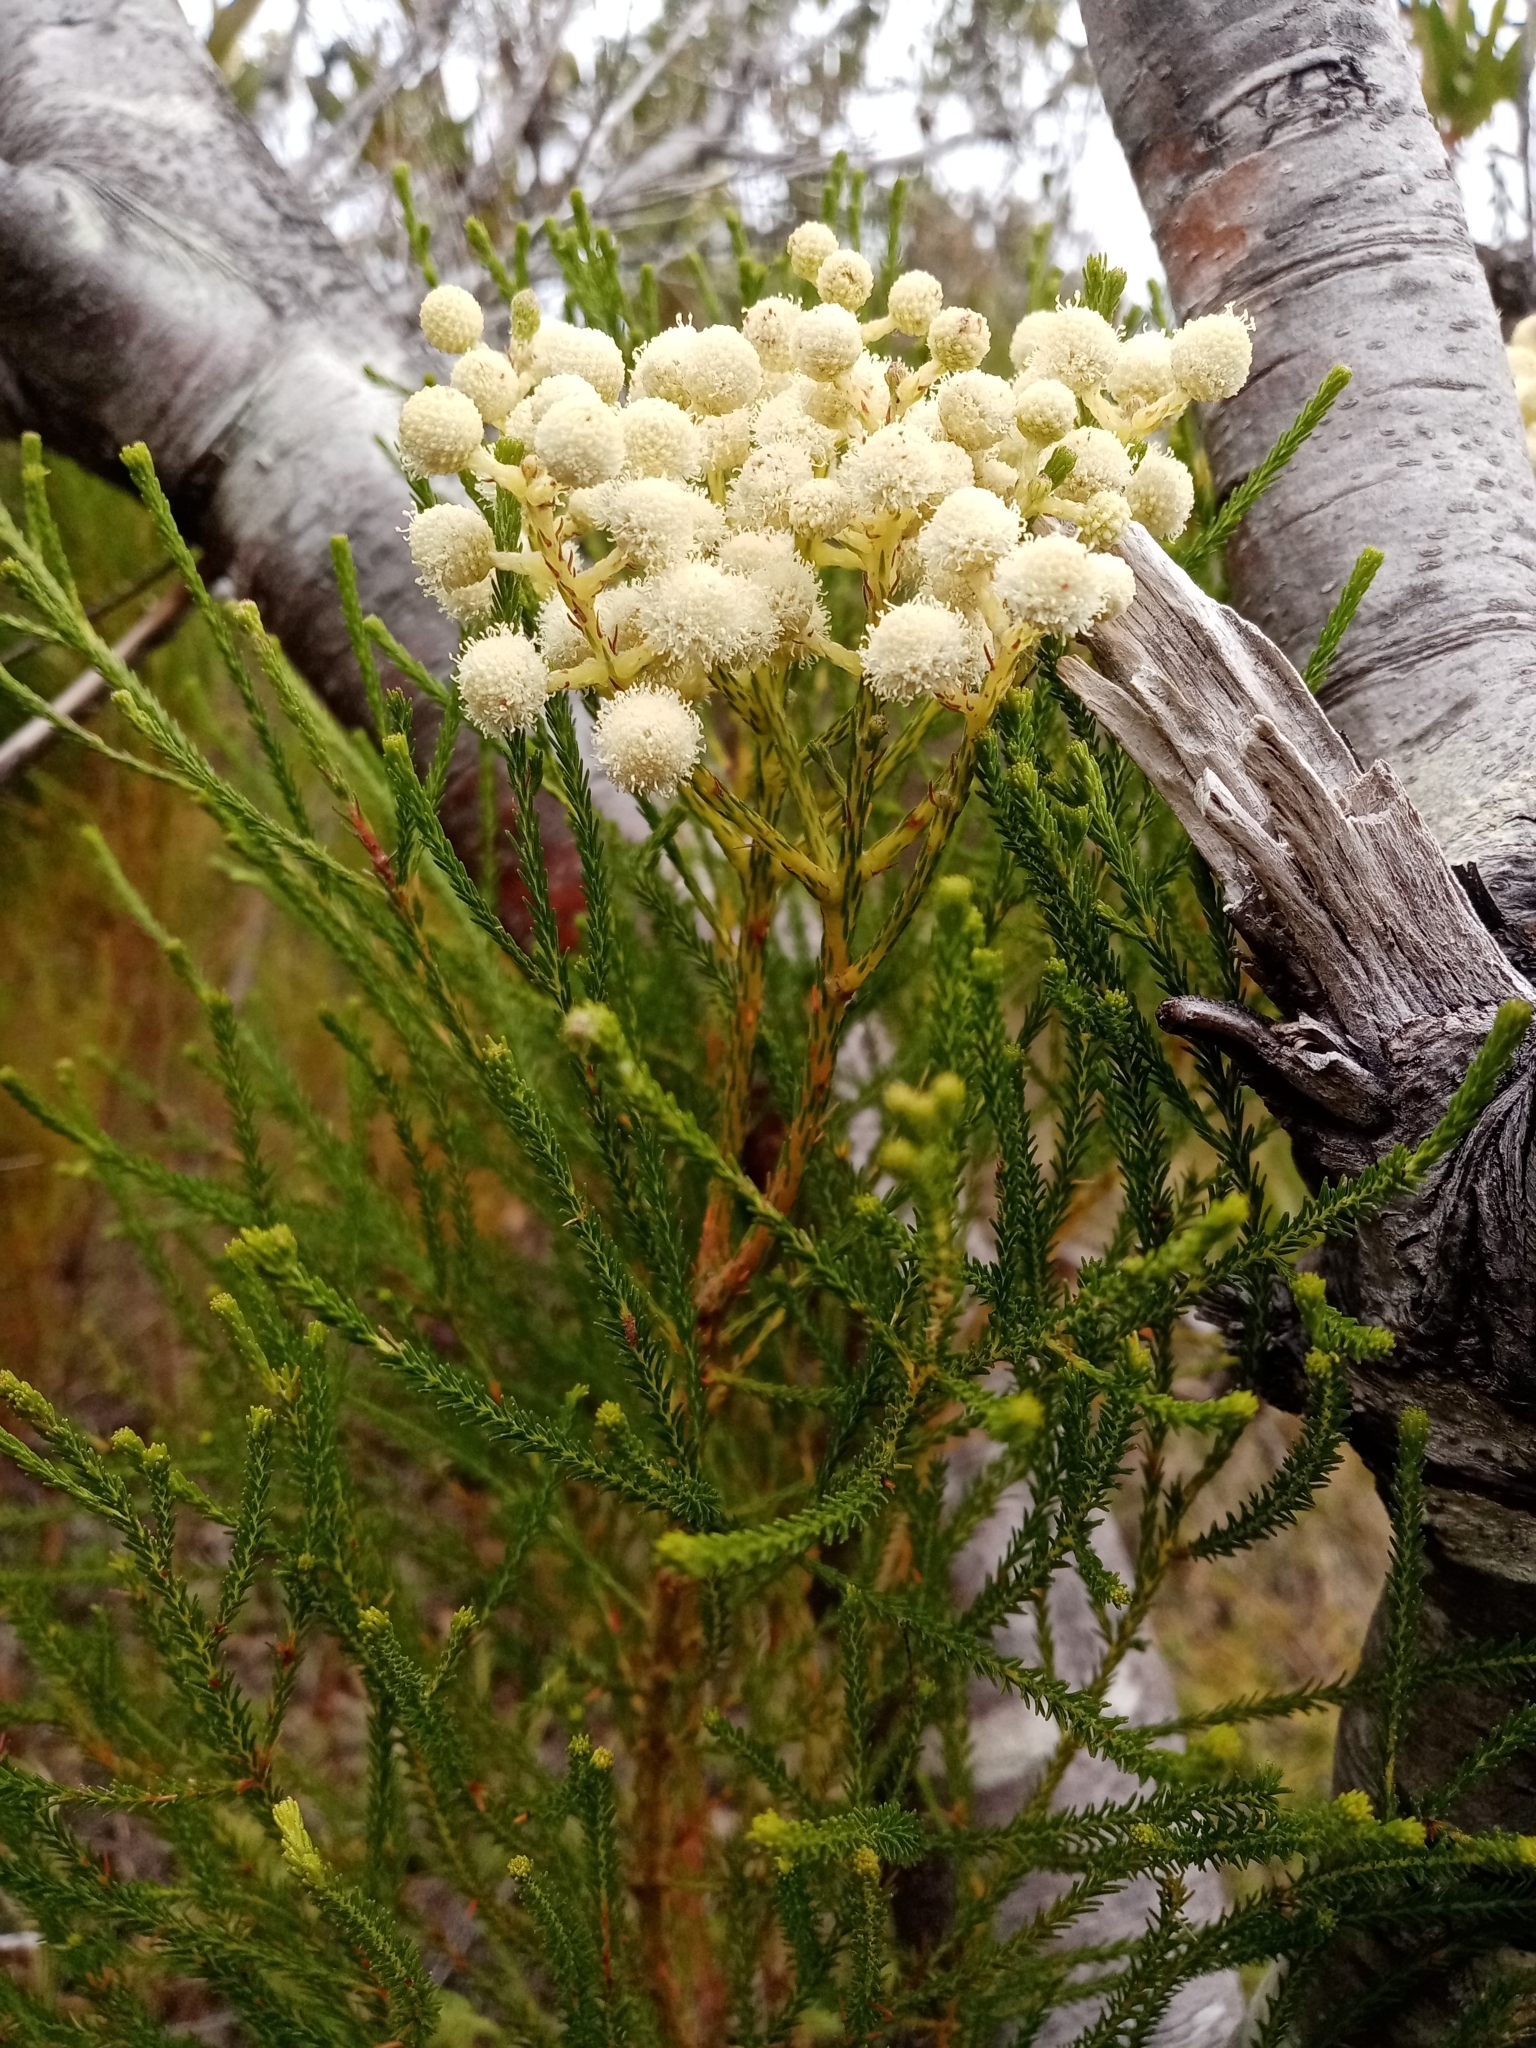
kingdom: Plantae
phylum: Tracheophyta
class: Magnoliopsida
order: Bruniales
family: Bruniaceae
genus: Berzelia
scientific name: Berzelia lanuginosa
